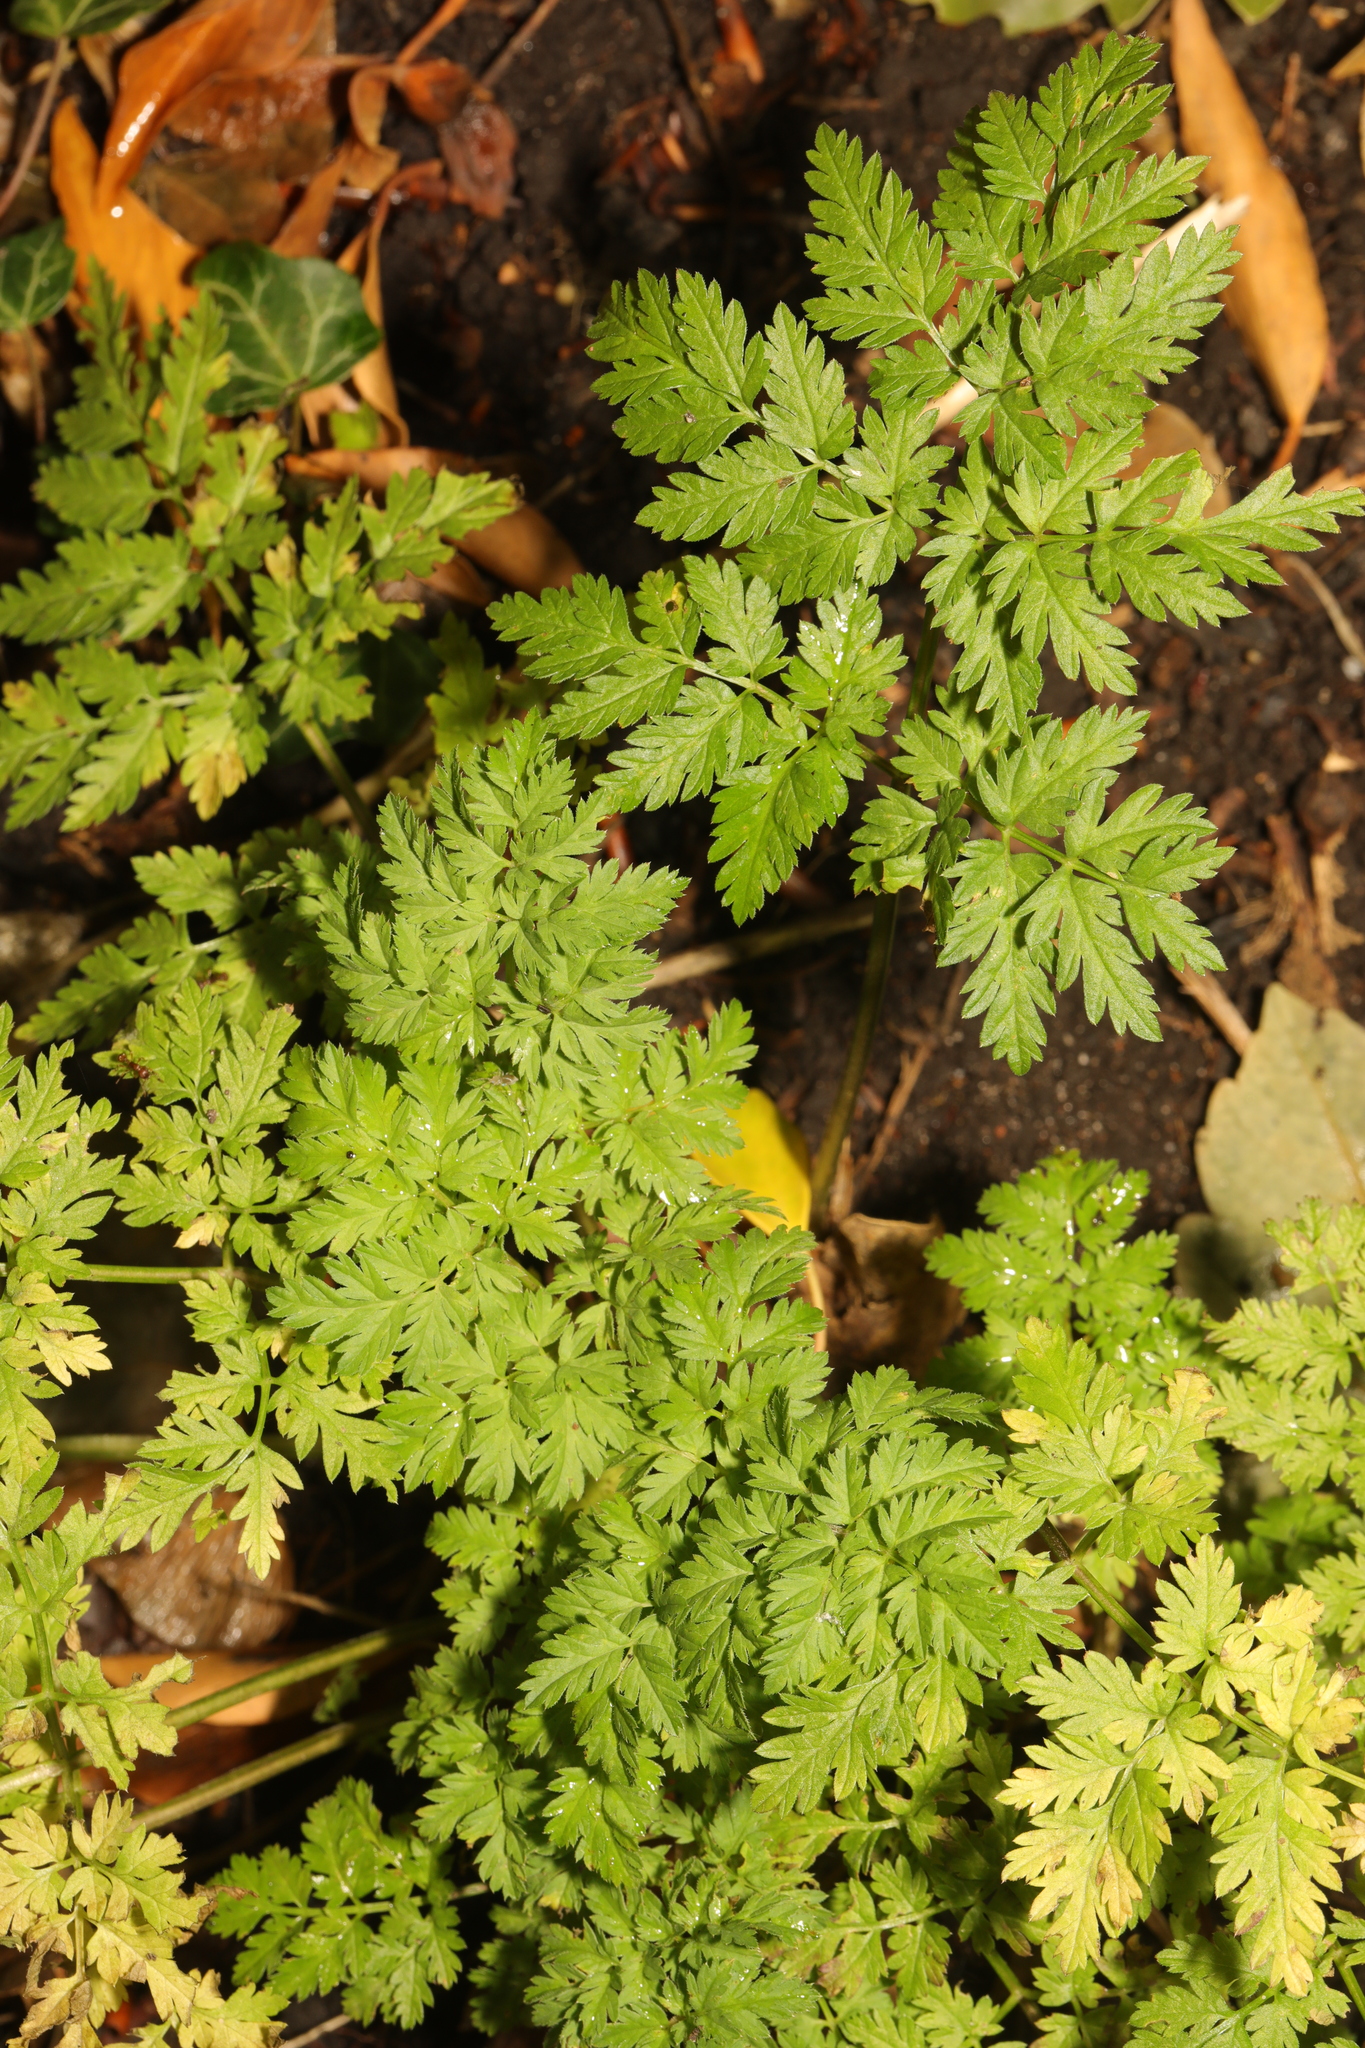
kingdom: Plantae
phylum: Tracheophyta
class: Magnoliopsida
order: Apiales
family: Apiaceae
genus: Anthriscus
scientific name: Anthriscus sylvestris
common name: Cow parsley
